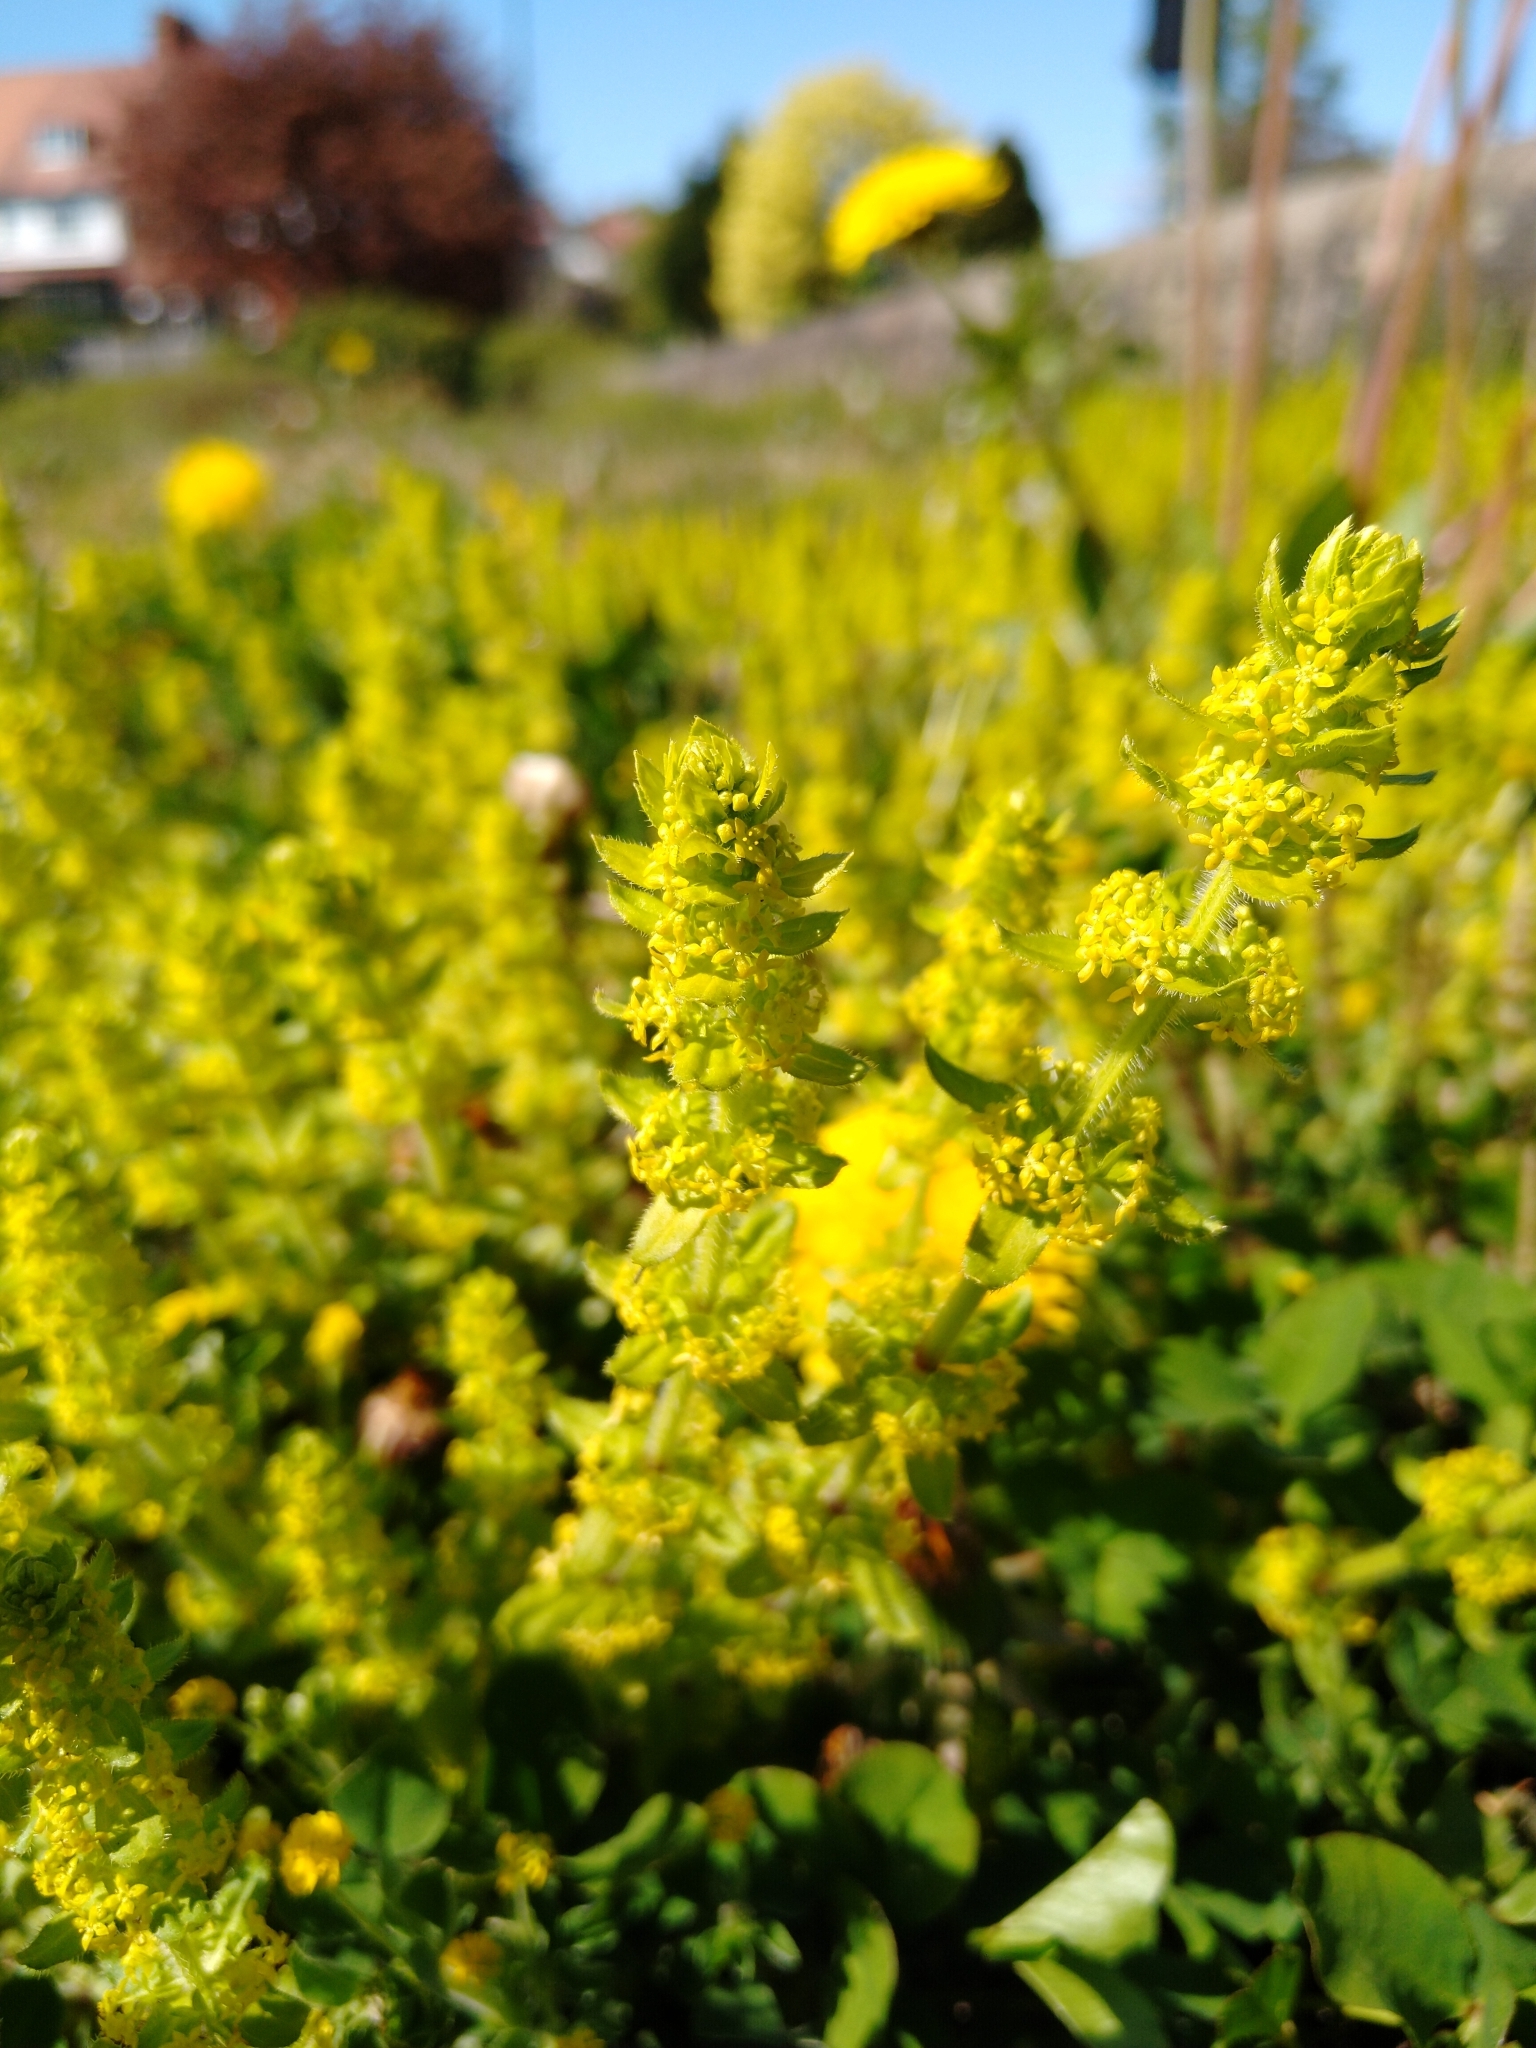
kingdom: Plantae
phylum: Tracheophyta
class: Magnoliopsida
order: Gentianales
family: Rubiaceae
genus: Cruciata
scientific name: Cruciata laevipes
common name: Crosswort
